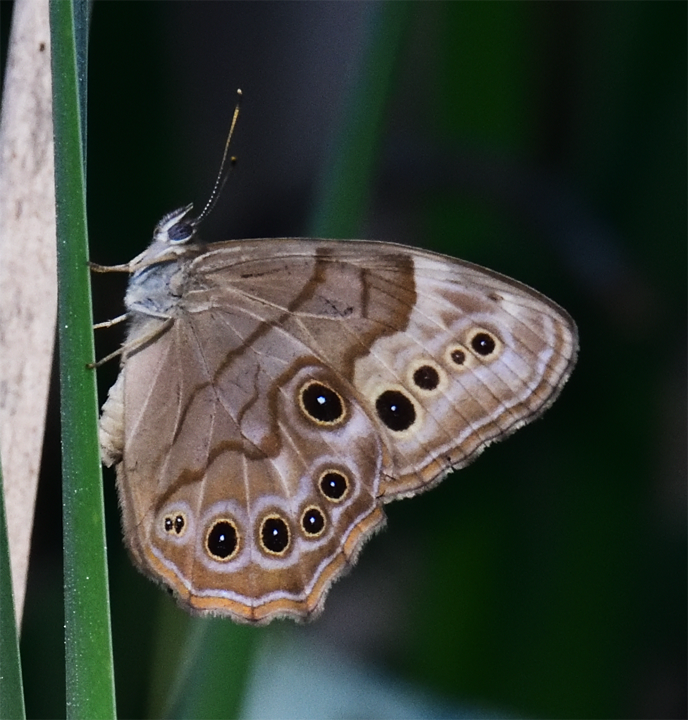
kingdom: Animalia
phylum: Arthropoda
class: Insecta
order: Lepidoptera
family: Nymphalidae
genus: Lethe
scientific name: Lethe anthedon
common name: Northern pearly-eye
